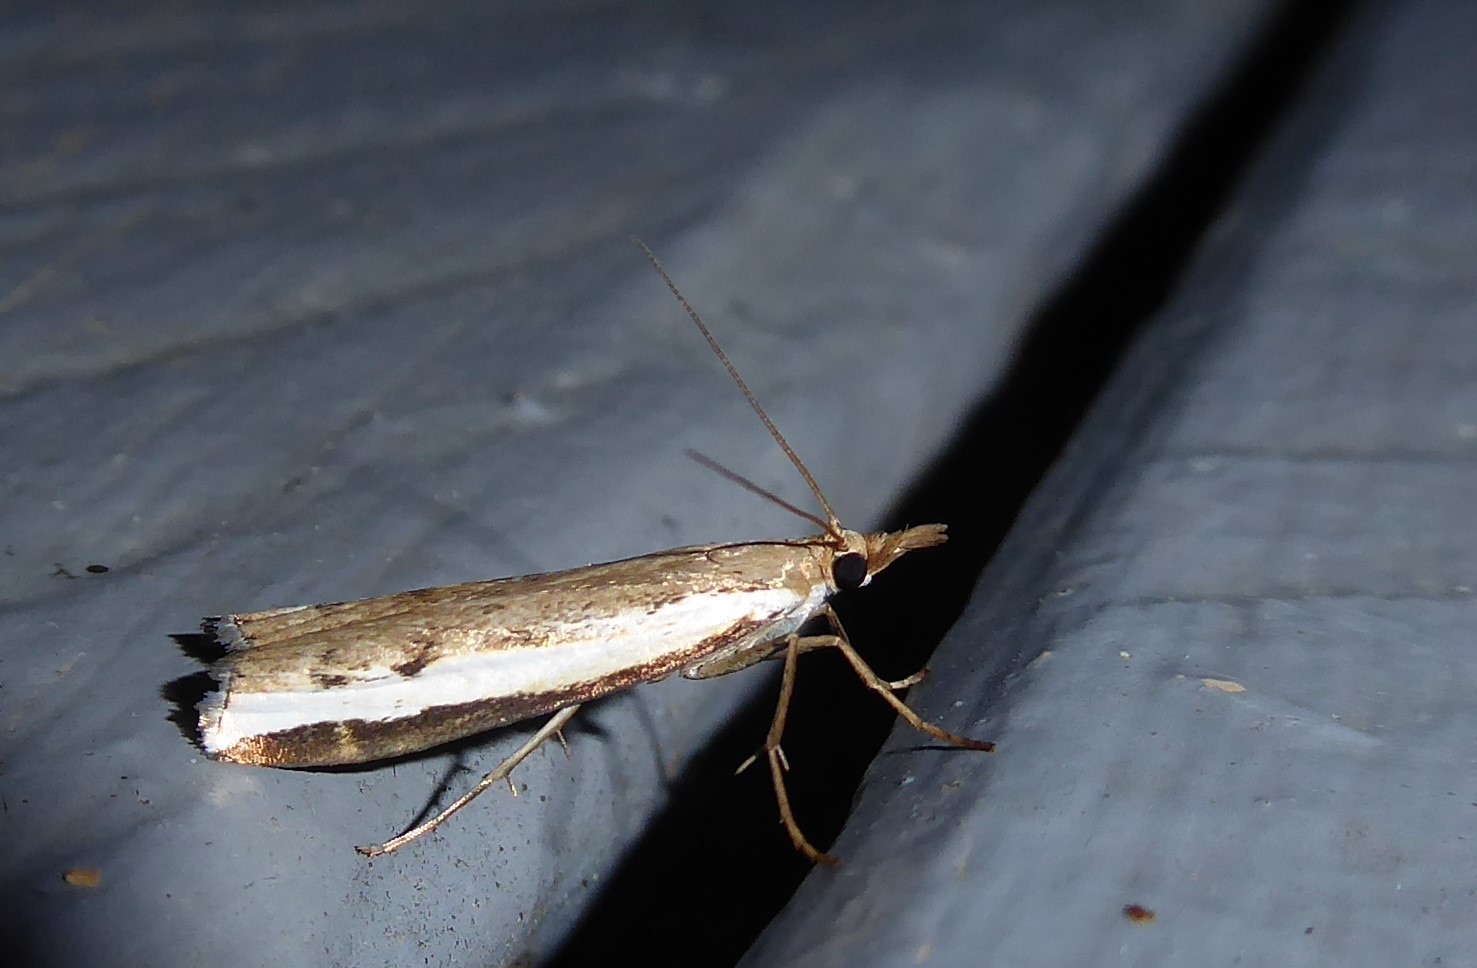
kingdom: Animalia
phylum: Arthropoda
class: Insecta
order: Lepidoptera
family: Crambidae
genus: Orocrambus
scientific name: Orocrambus flexuosellus
